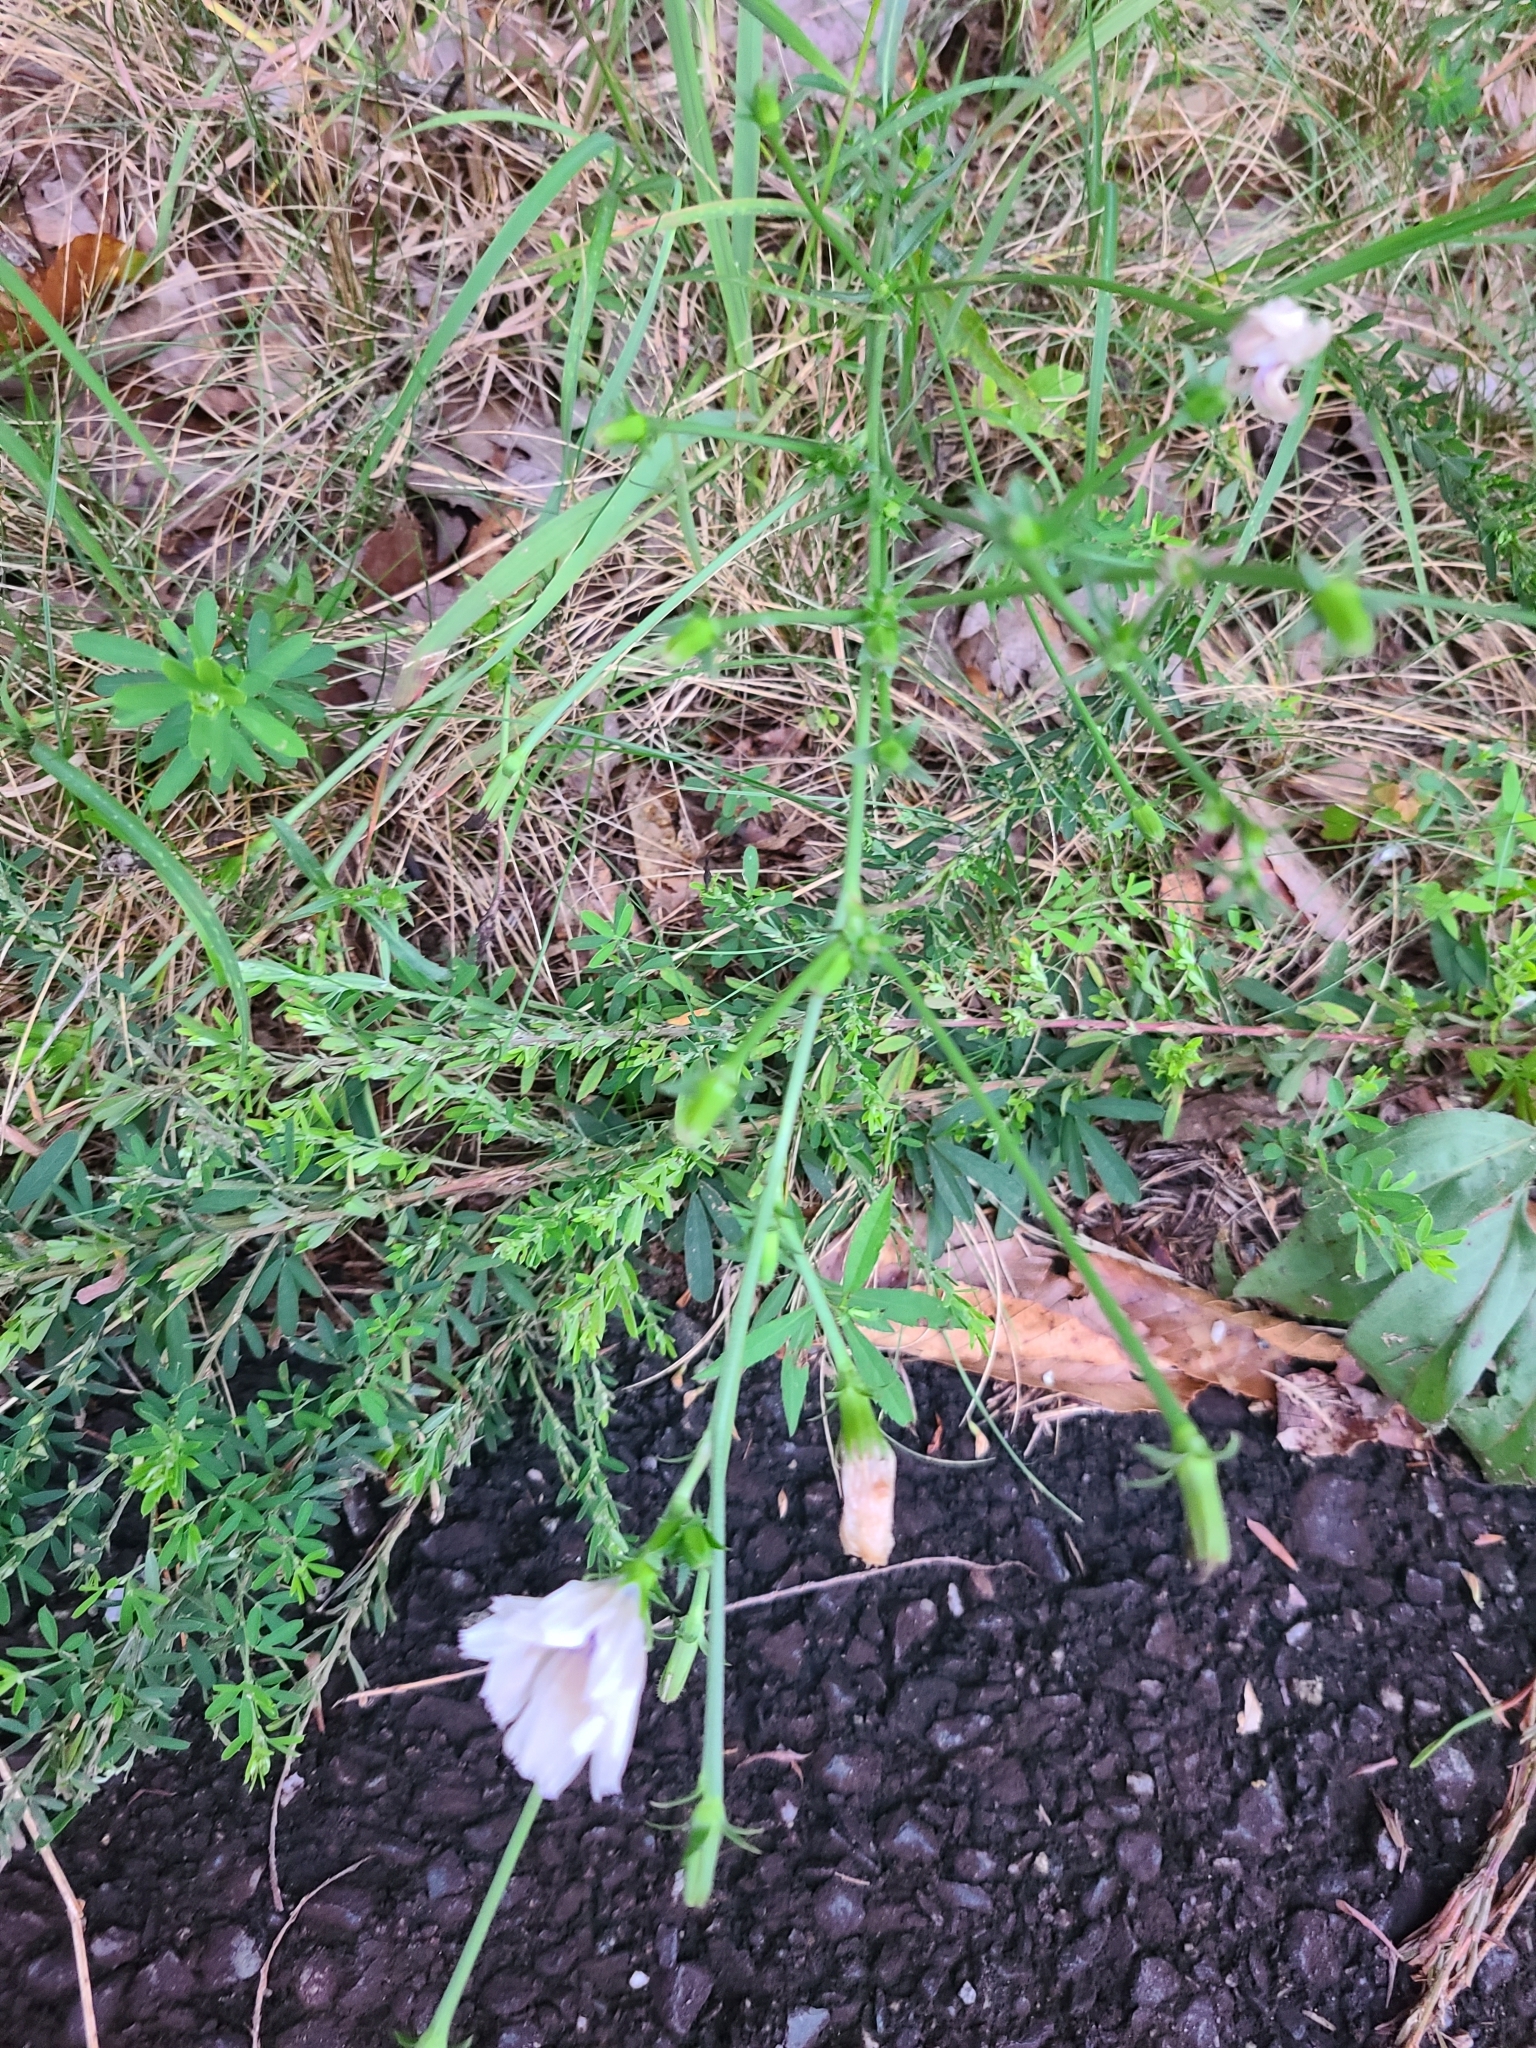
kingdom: Plantae
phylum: Tracheophyta
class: Magnoliopsida
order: Asterales
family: Asteraceae
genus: Cichorium
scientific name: Cichorium intybus
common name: Chicory
